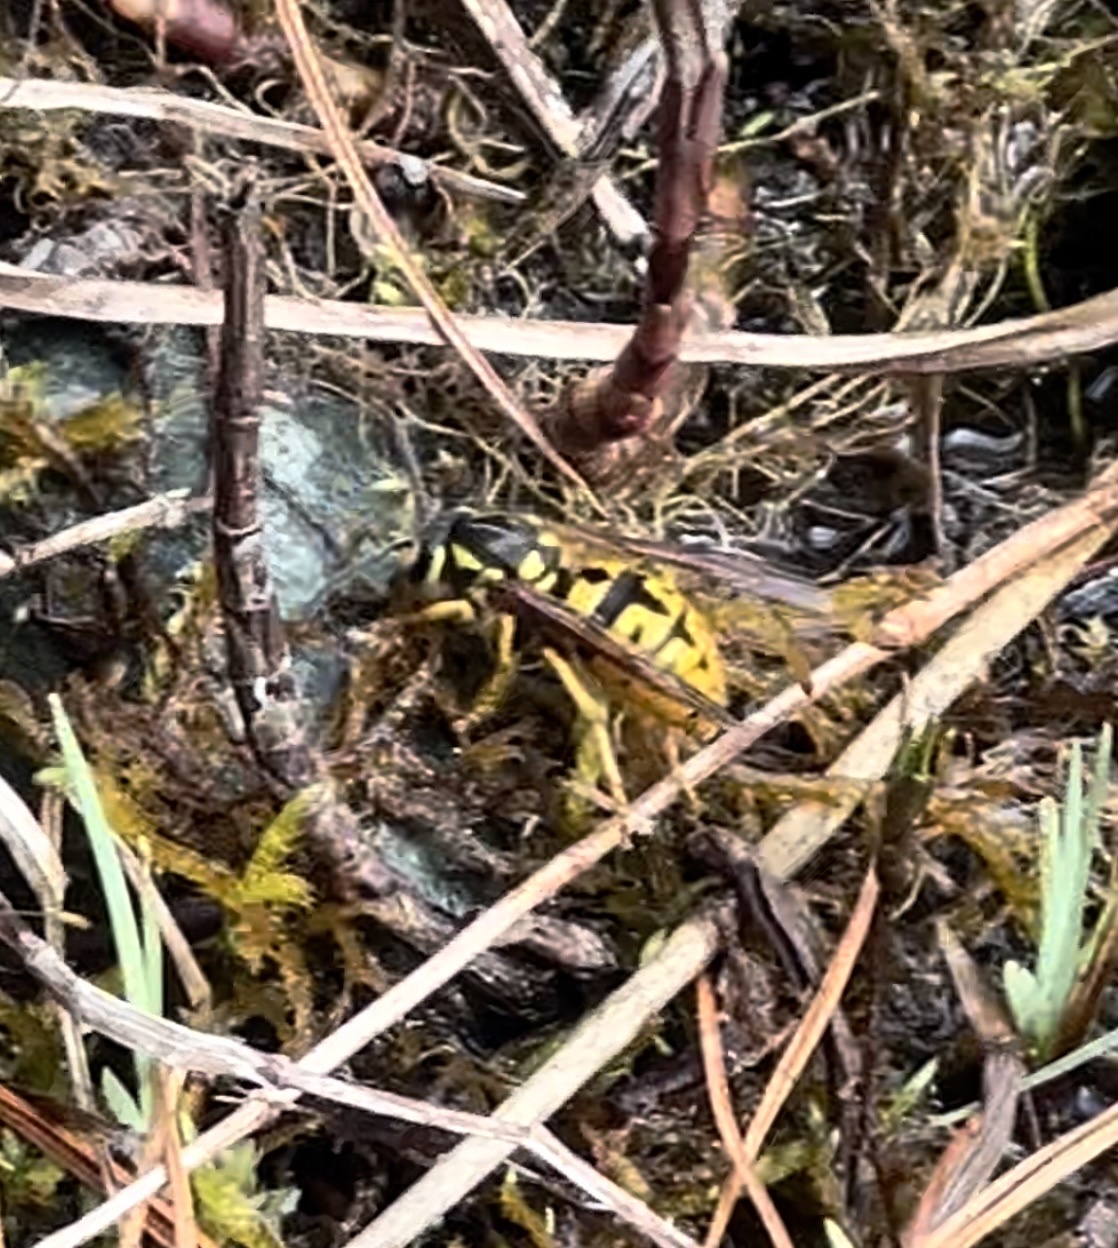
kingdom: Animalia
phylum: Arthropoda
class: Insecta
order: Hymenoptera
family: Vespidae
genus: Vespula
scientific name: Vespula germanica
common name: German wasp
